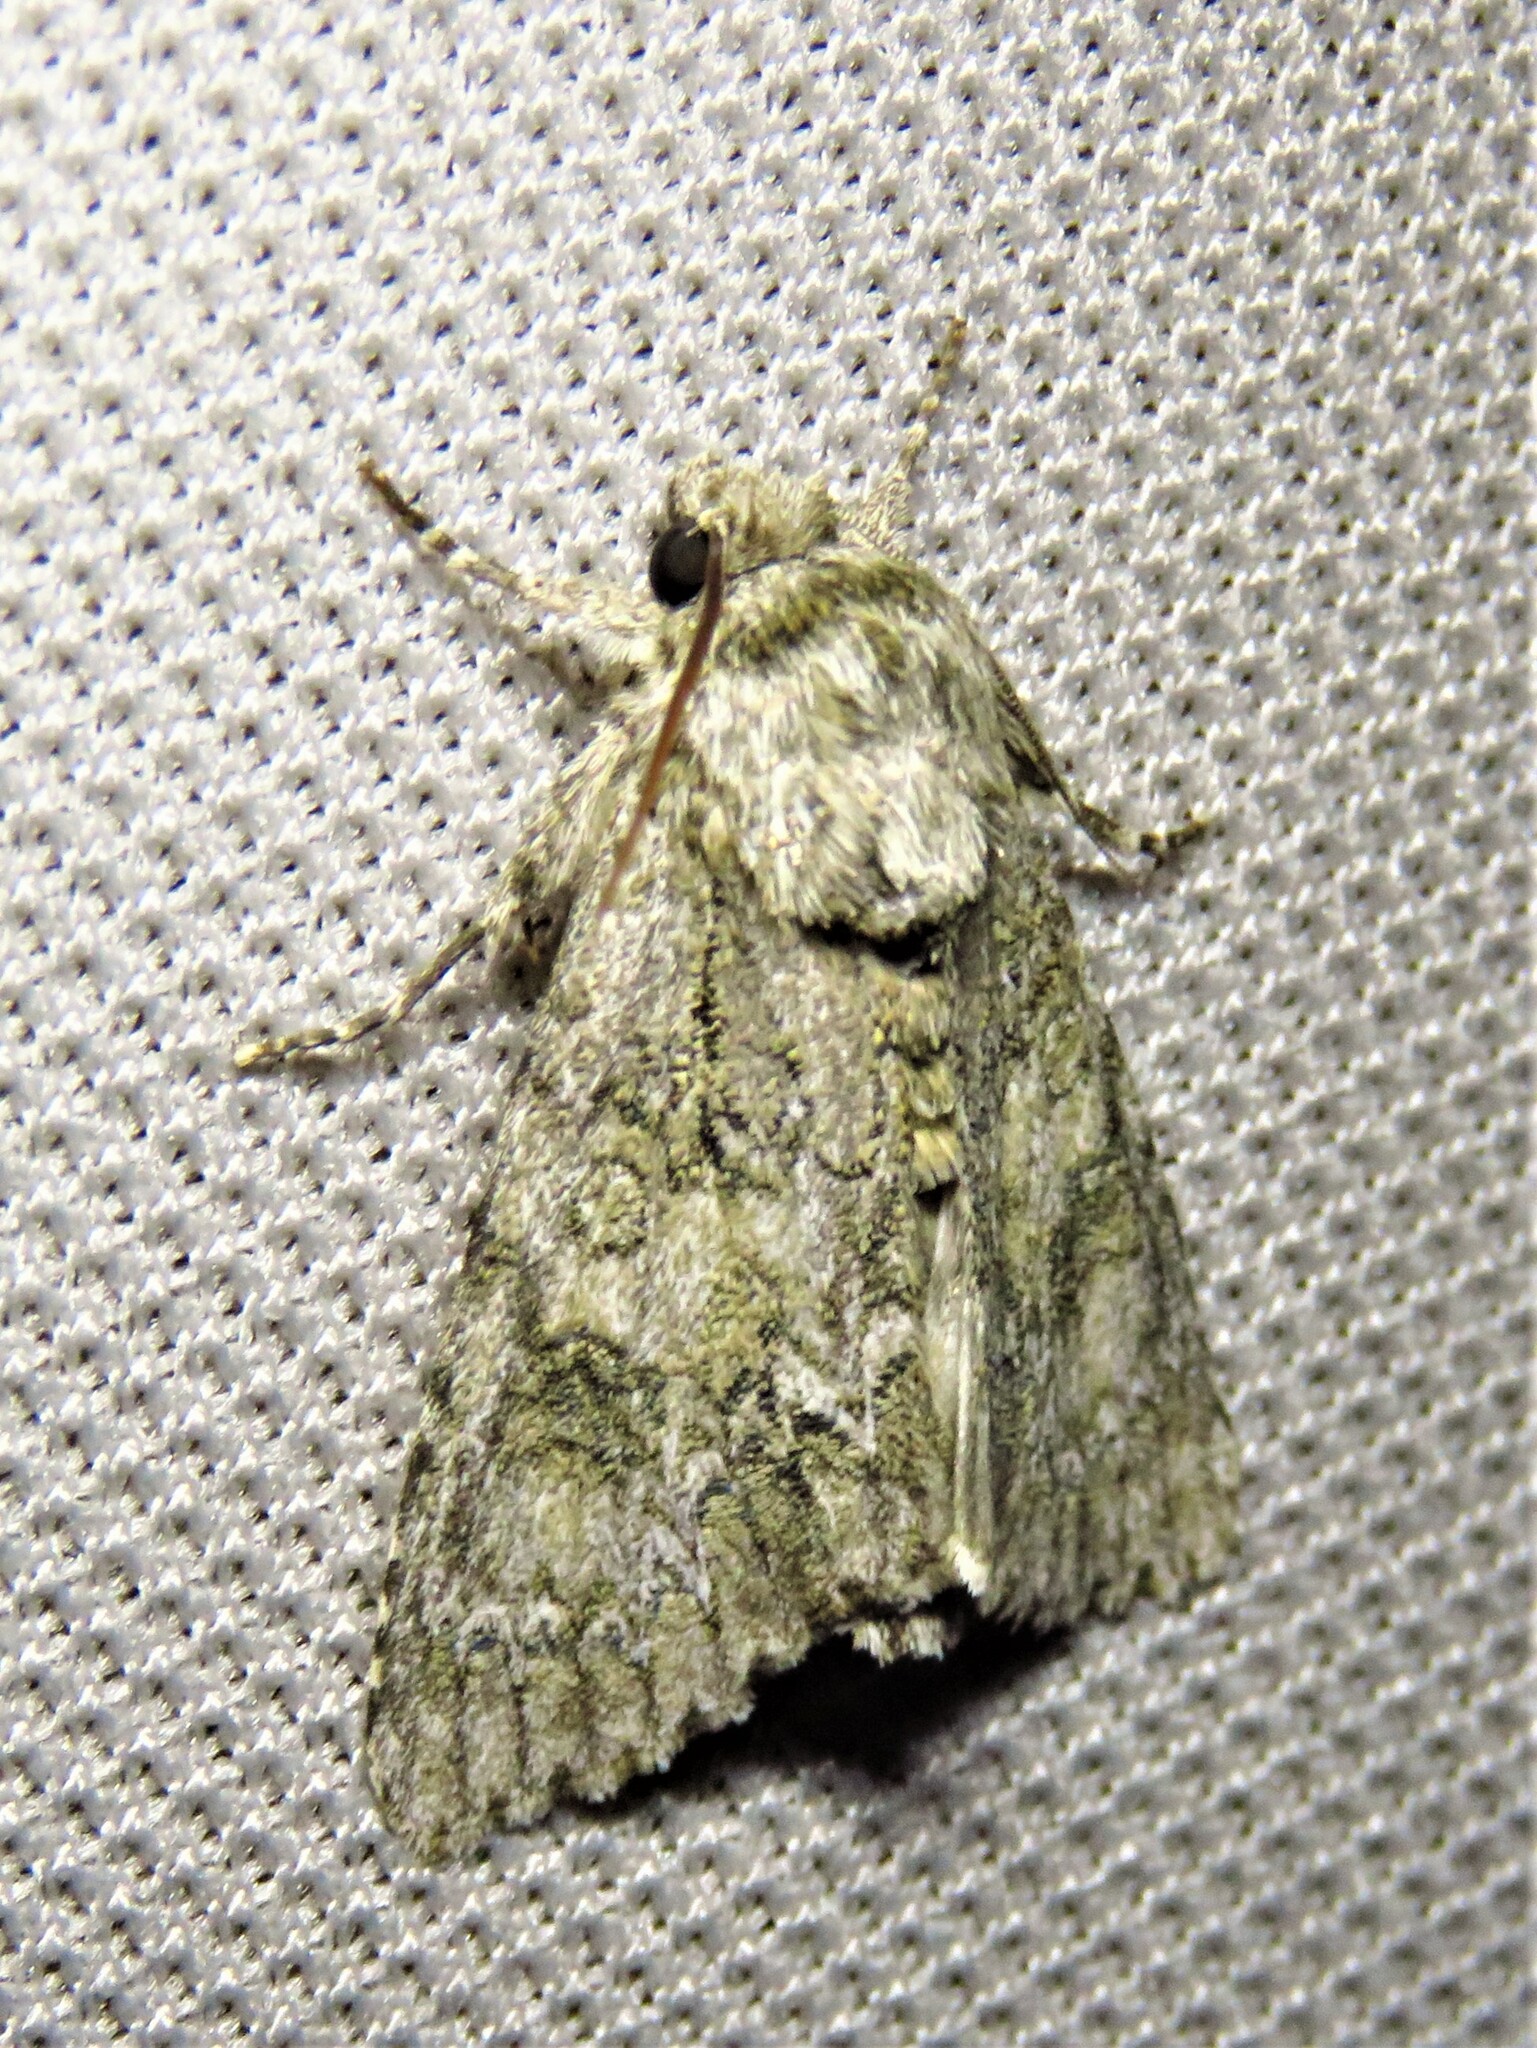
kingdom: Animalia
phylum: Arthropoda
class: Insecta
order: Lepidoptera
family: Noctuidae
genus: Acronicta
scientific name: Acronicta rubricoma
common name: Hackberry dagger
